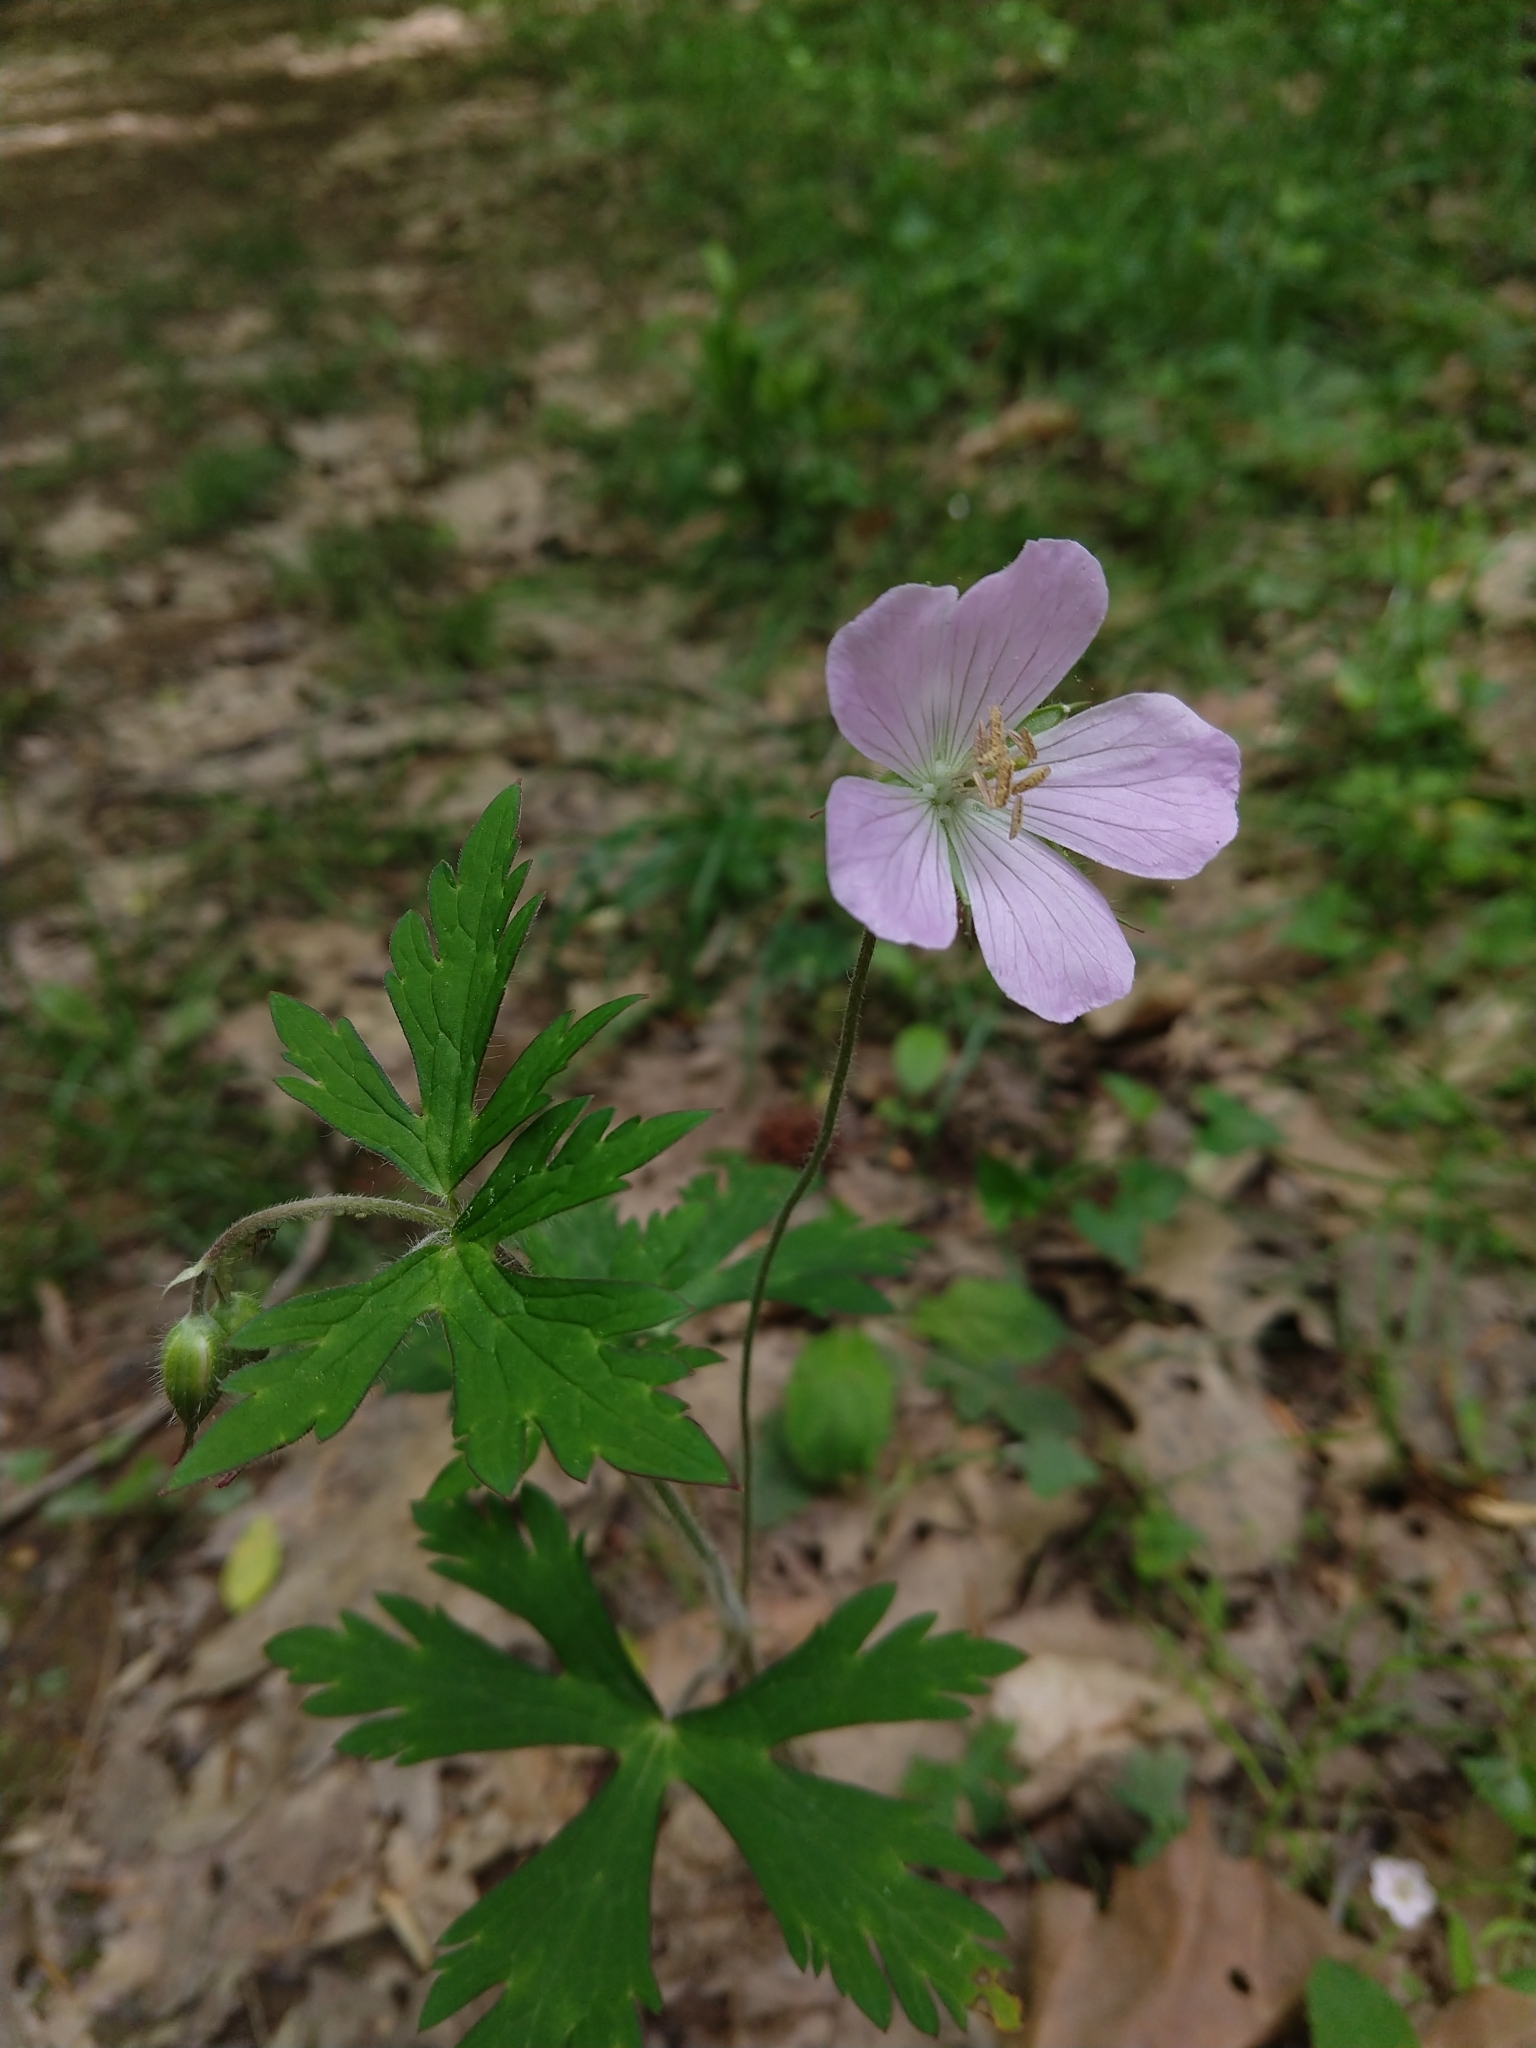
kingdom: Plantae
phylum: Tracheophyta
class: Magnoliopsida
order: Geraniales
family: Geraniaceae
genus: Geranium
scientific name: Geranium maculatum
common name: Spotted geranium
